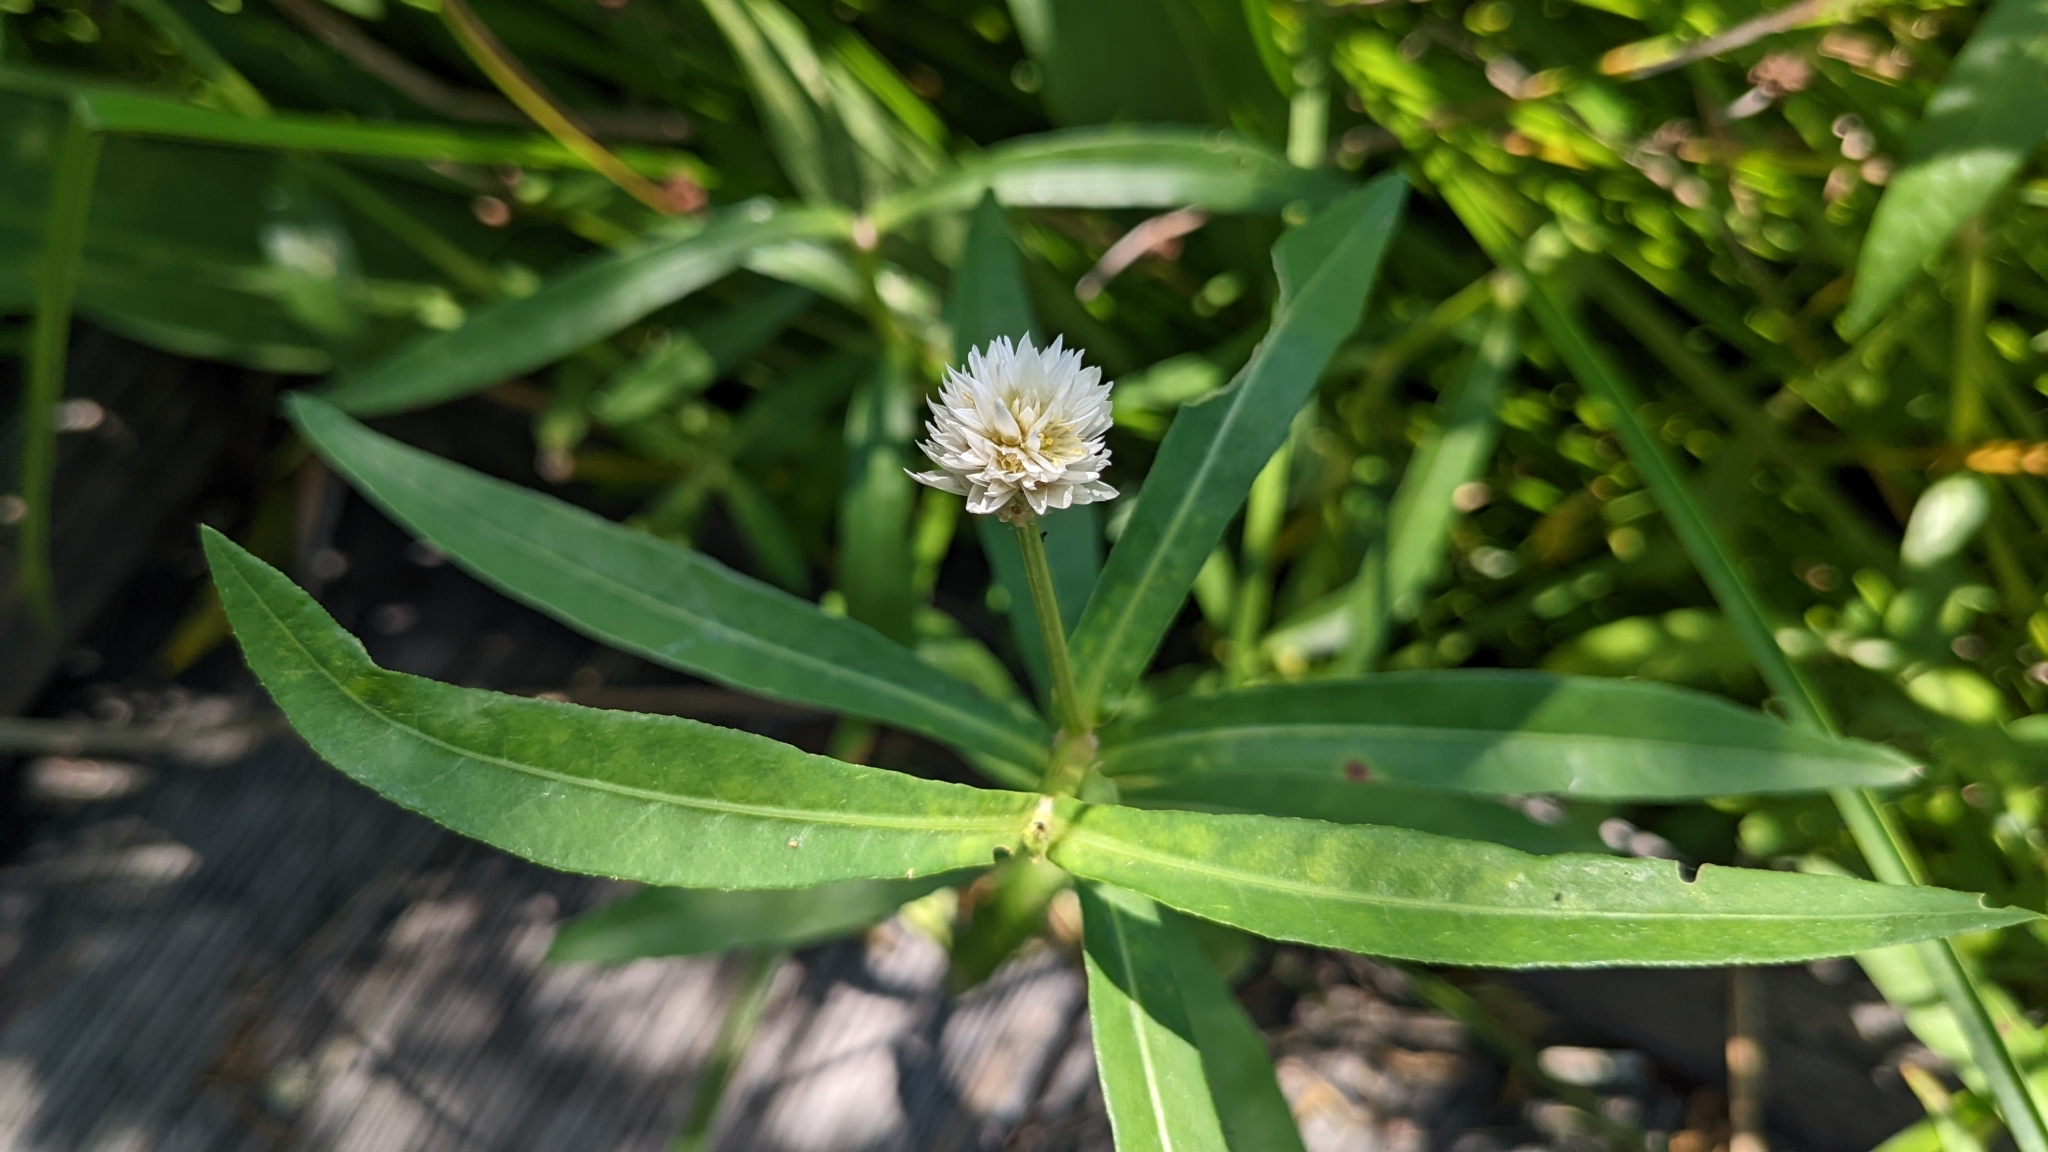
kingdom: Plantae
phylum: Tracheophyta
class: Magnoliopsida
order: Caryophyllales
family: Amaranthaceae
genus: Alternanthera
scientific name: Alternanthera philoxeroides
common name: Alligatorweed
